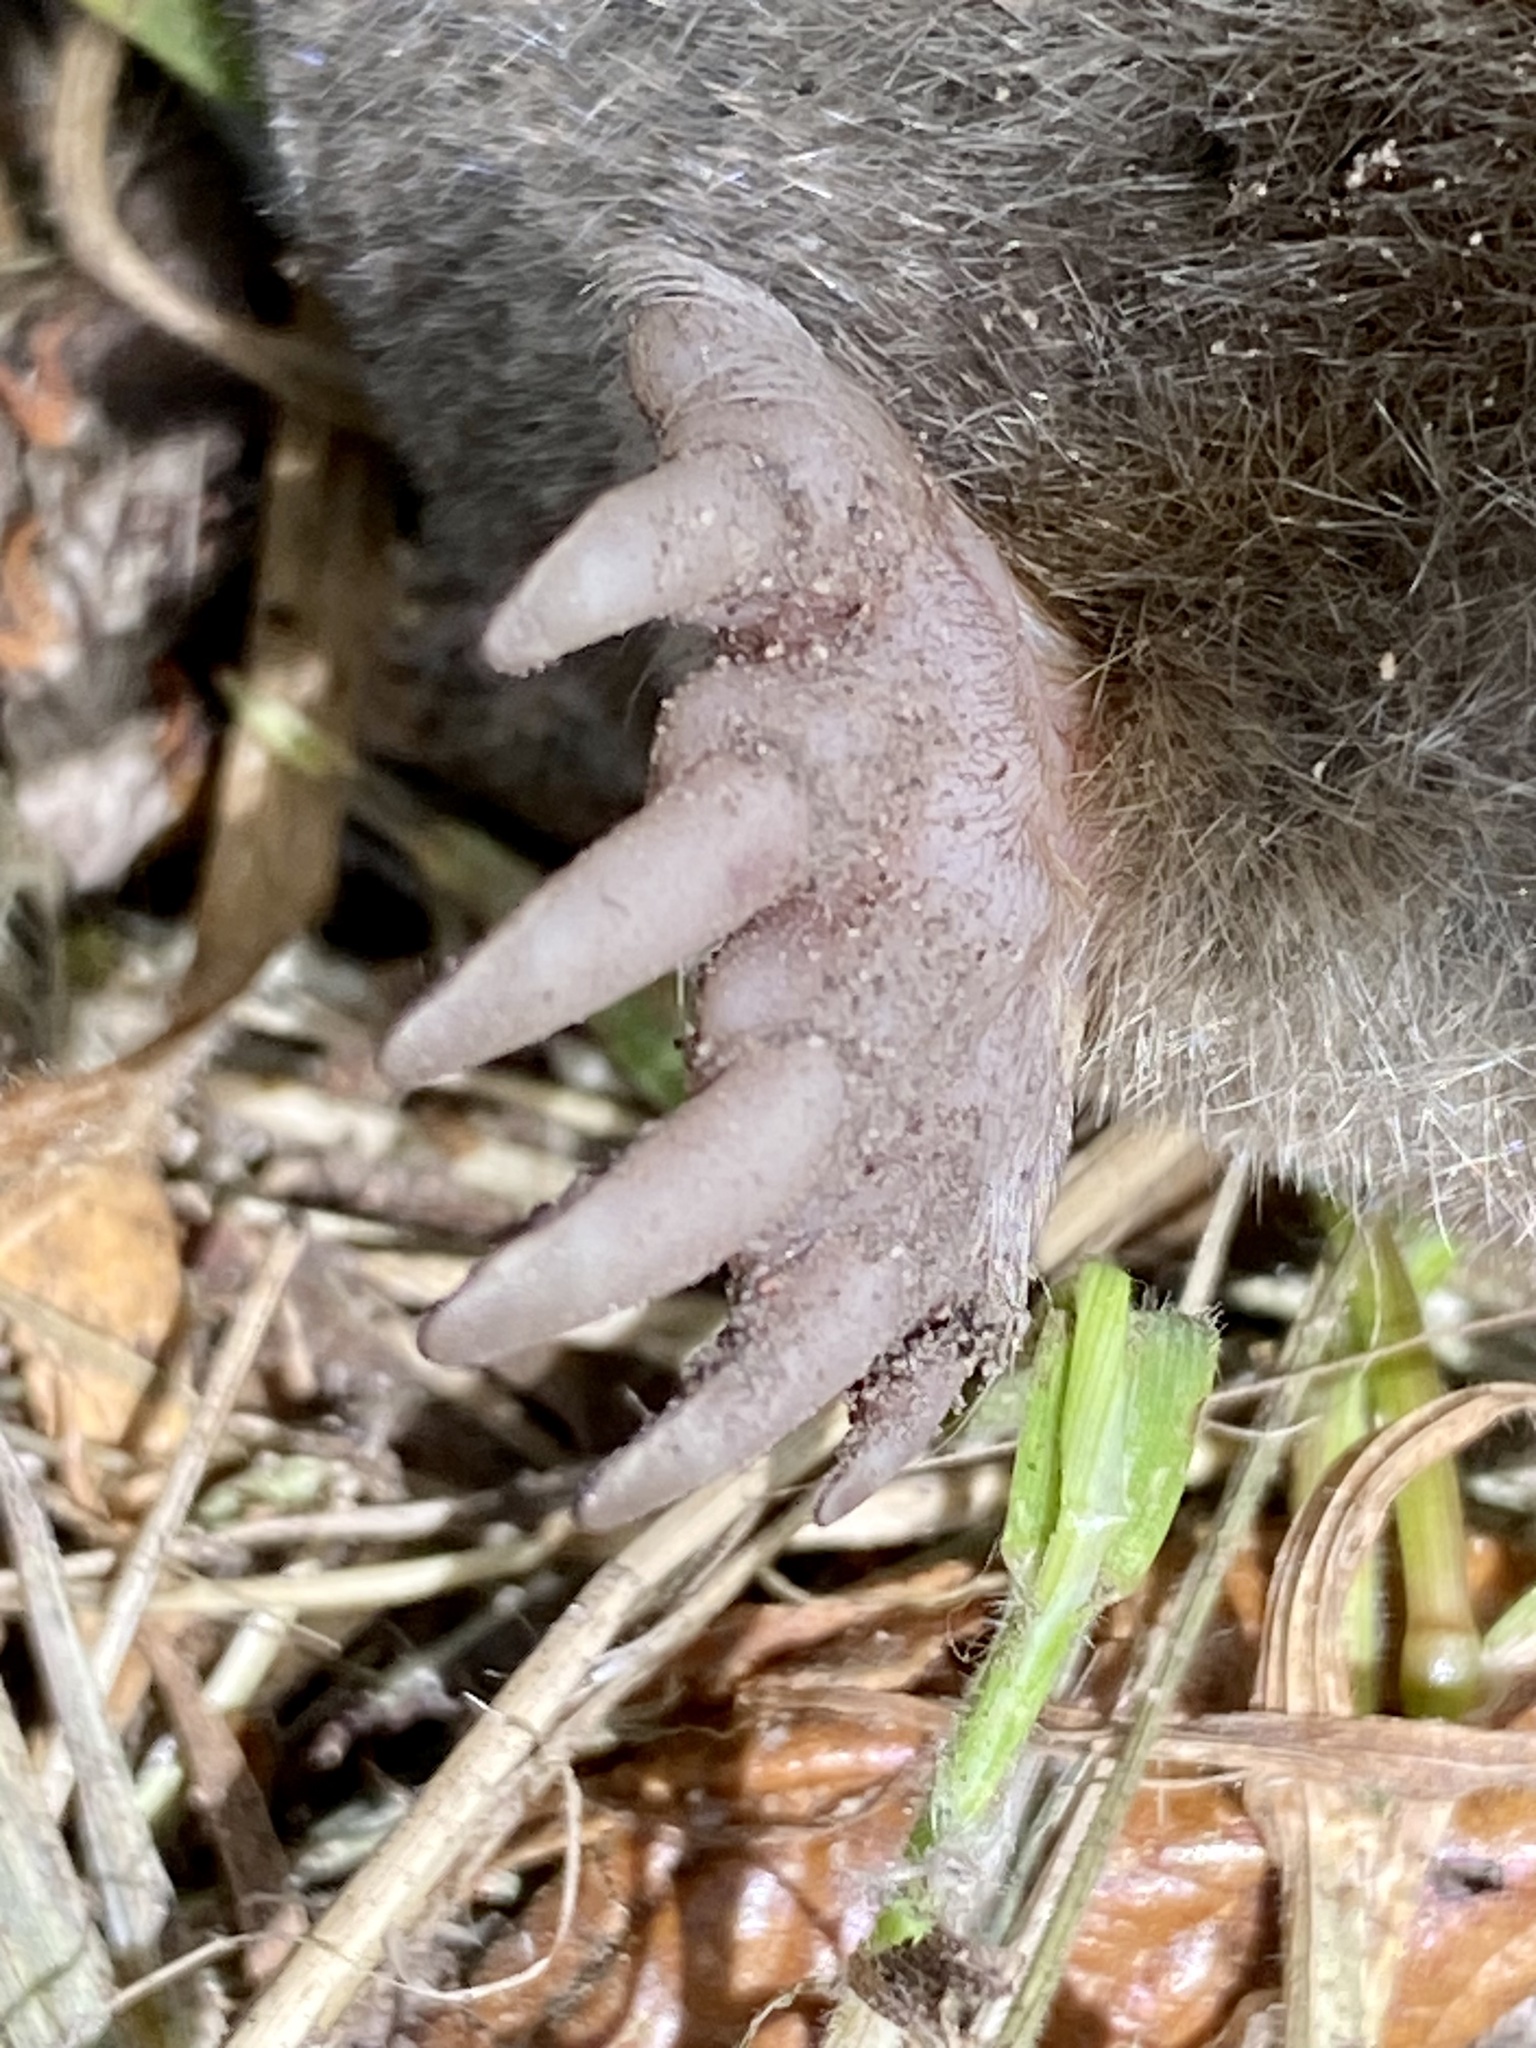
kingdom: Animalia
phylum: Chordata
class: Mammalia
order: Soricomorpha
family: Talpidae
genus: Scapanus
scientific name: Scapanus latimanus
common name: Broad-footed mole
